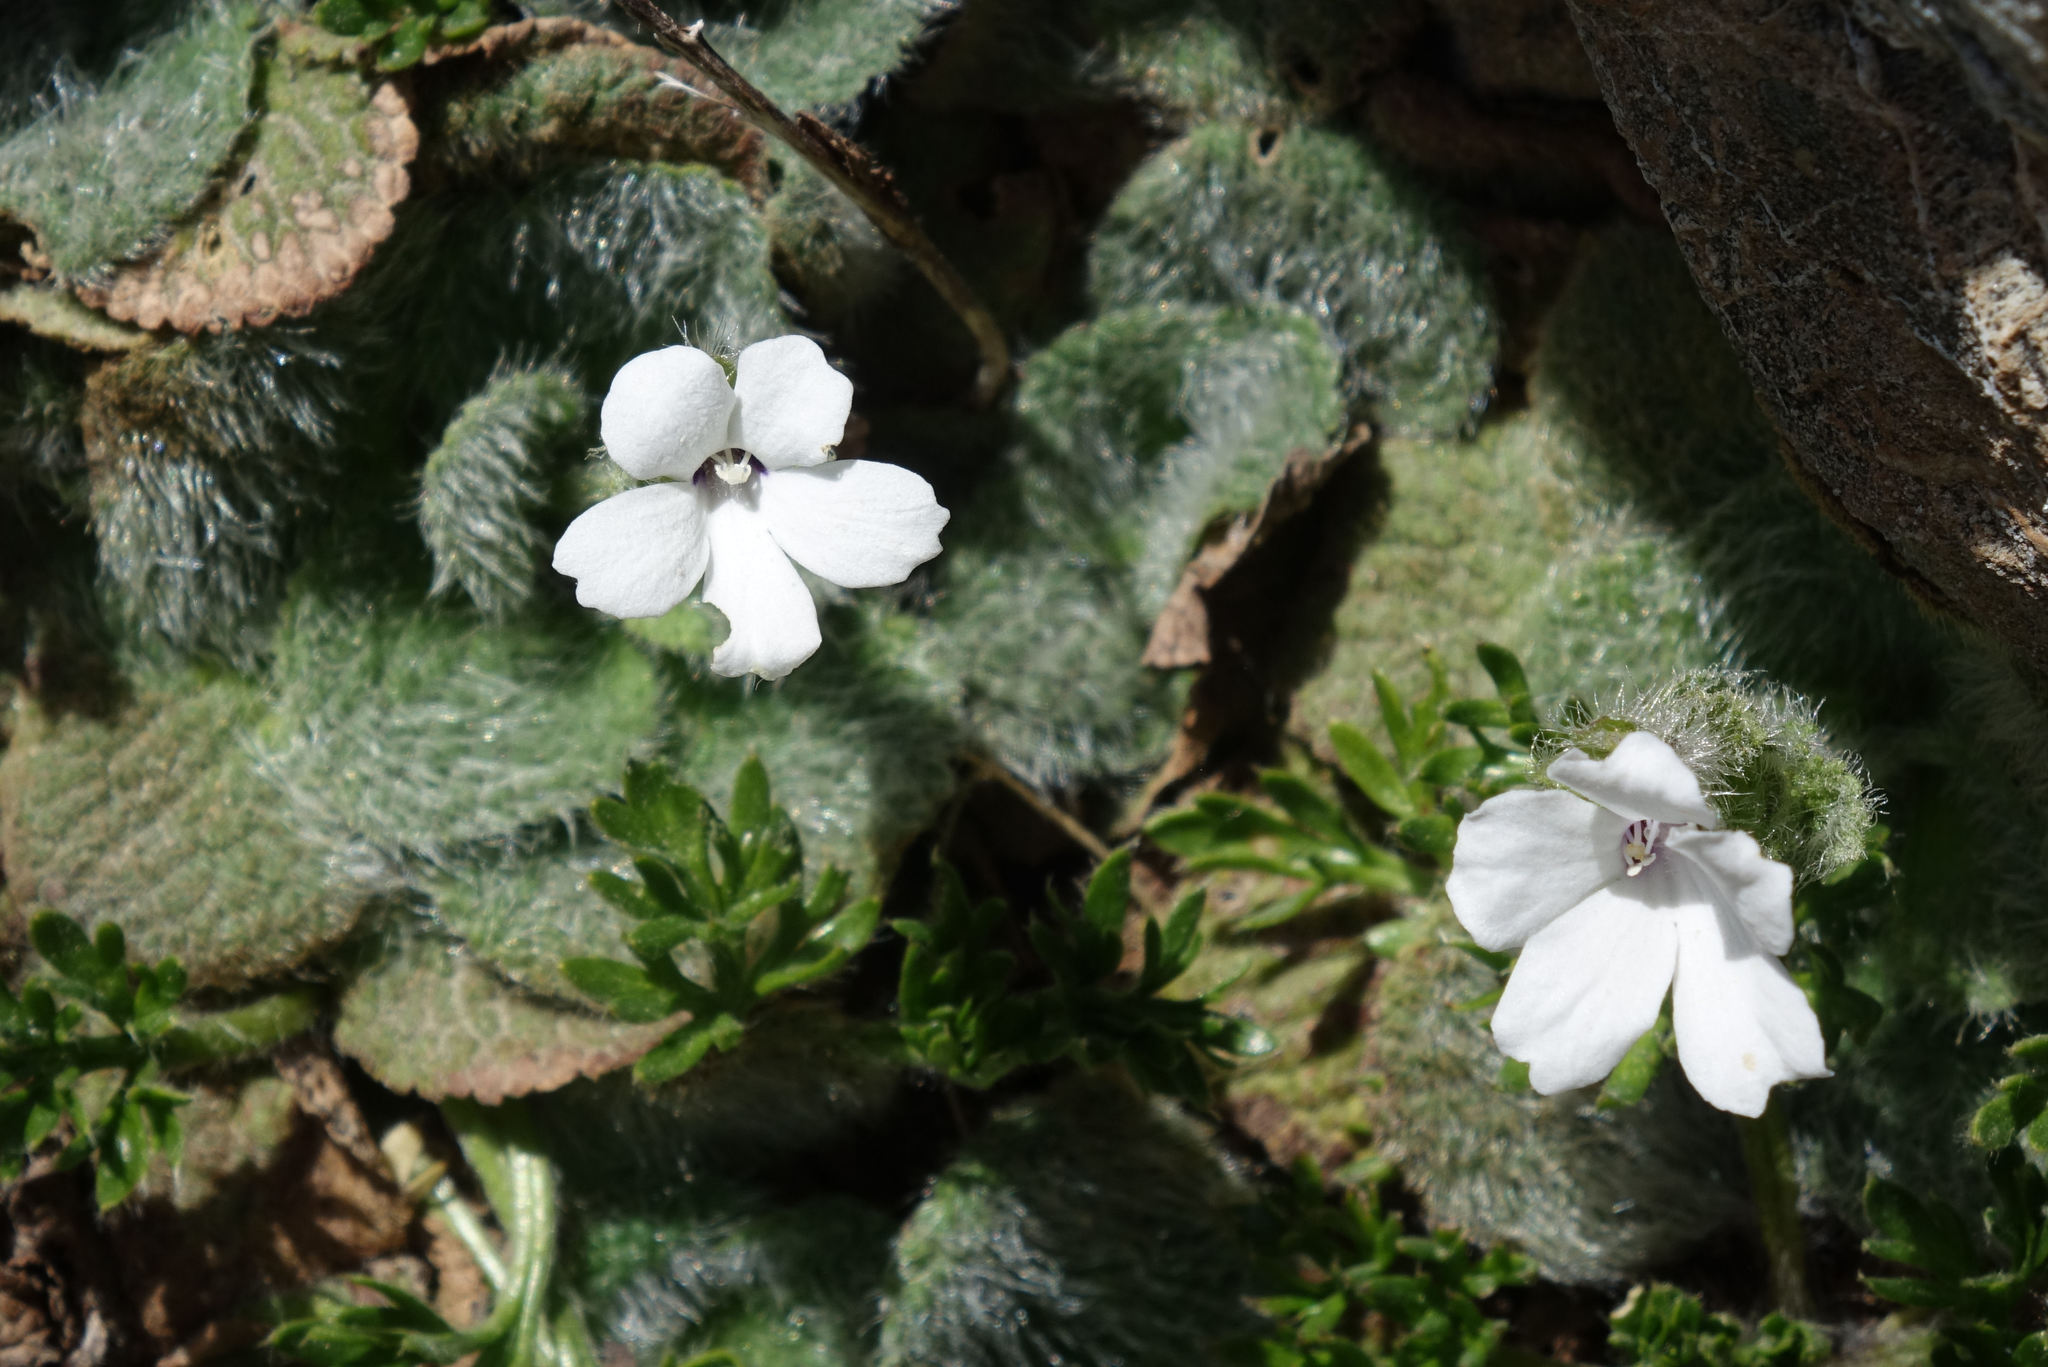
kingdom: Plantae
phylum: Tracheophyta
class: Magnoliopsida
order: Lamiales
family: Plantaginaceae
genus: Ourisia
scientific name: Ourisia sessilifolia
